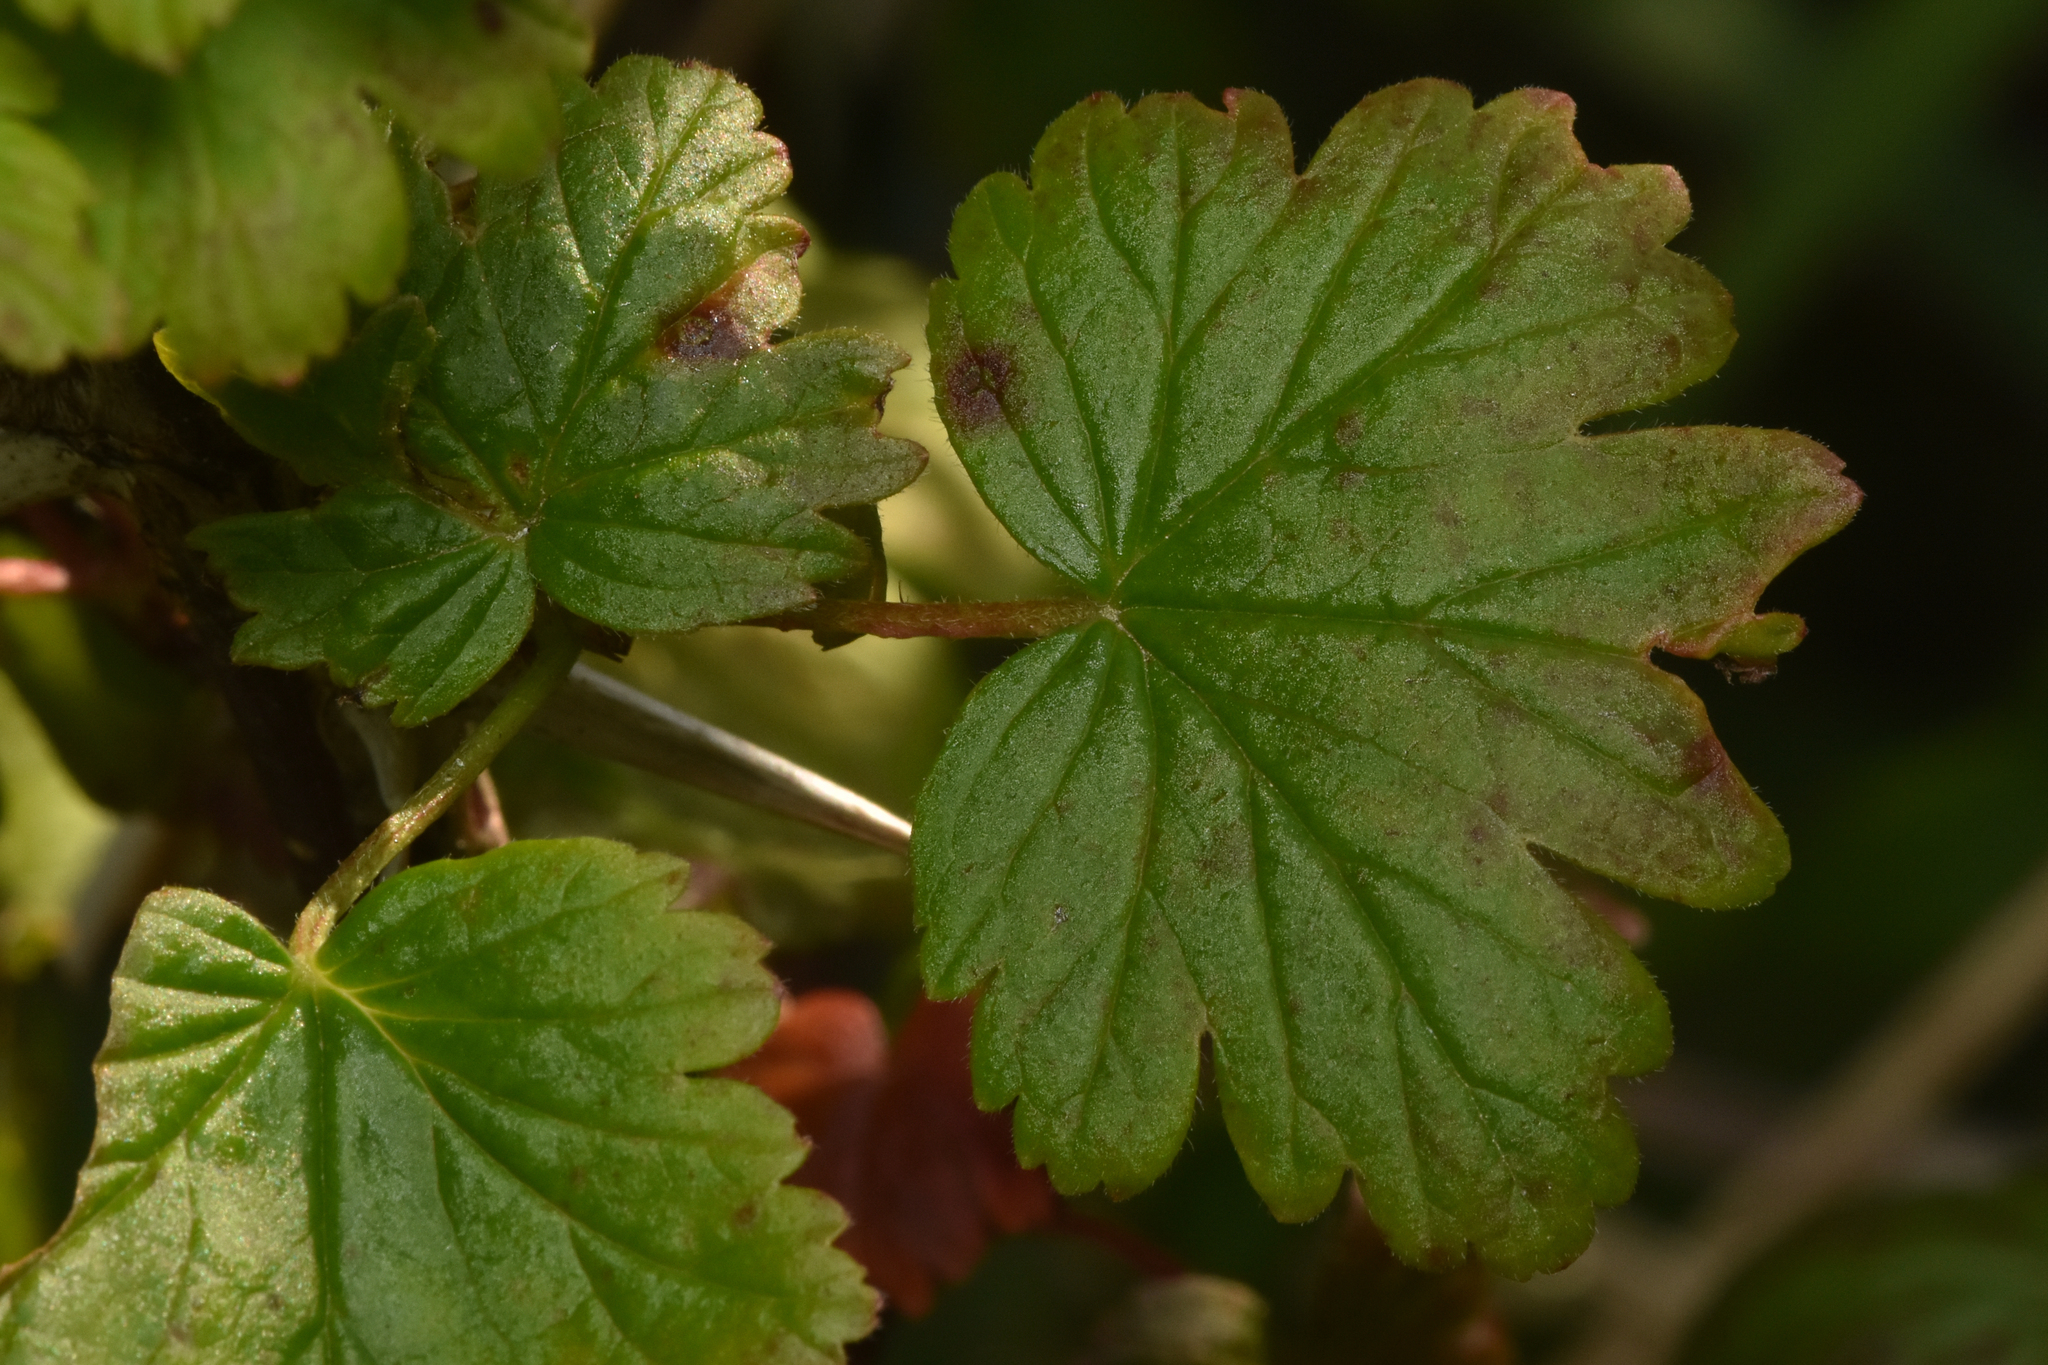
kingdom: Plantae
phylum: Tracheophyta
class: Magnoliopsida
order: Saxifragales
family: Grossulariaceae
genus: Ribes
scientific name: Ribes divaricatum
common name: Wild black gooseberry
